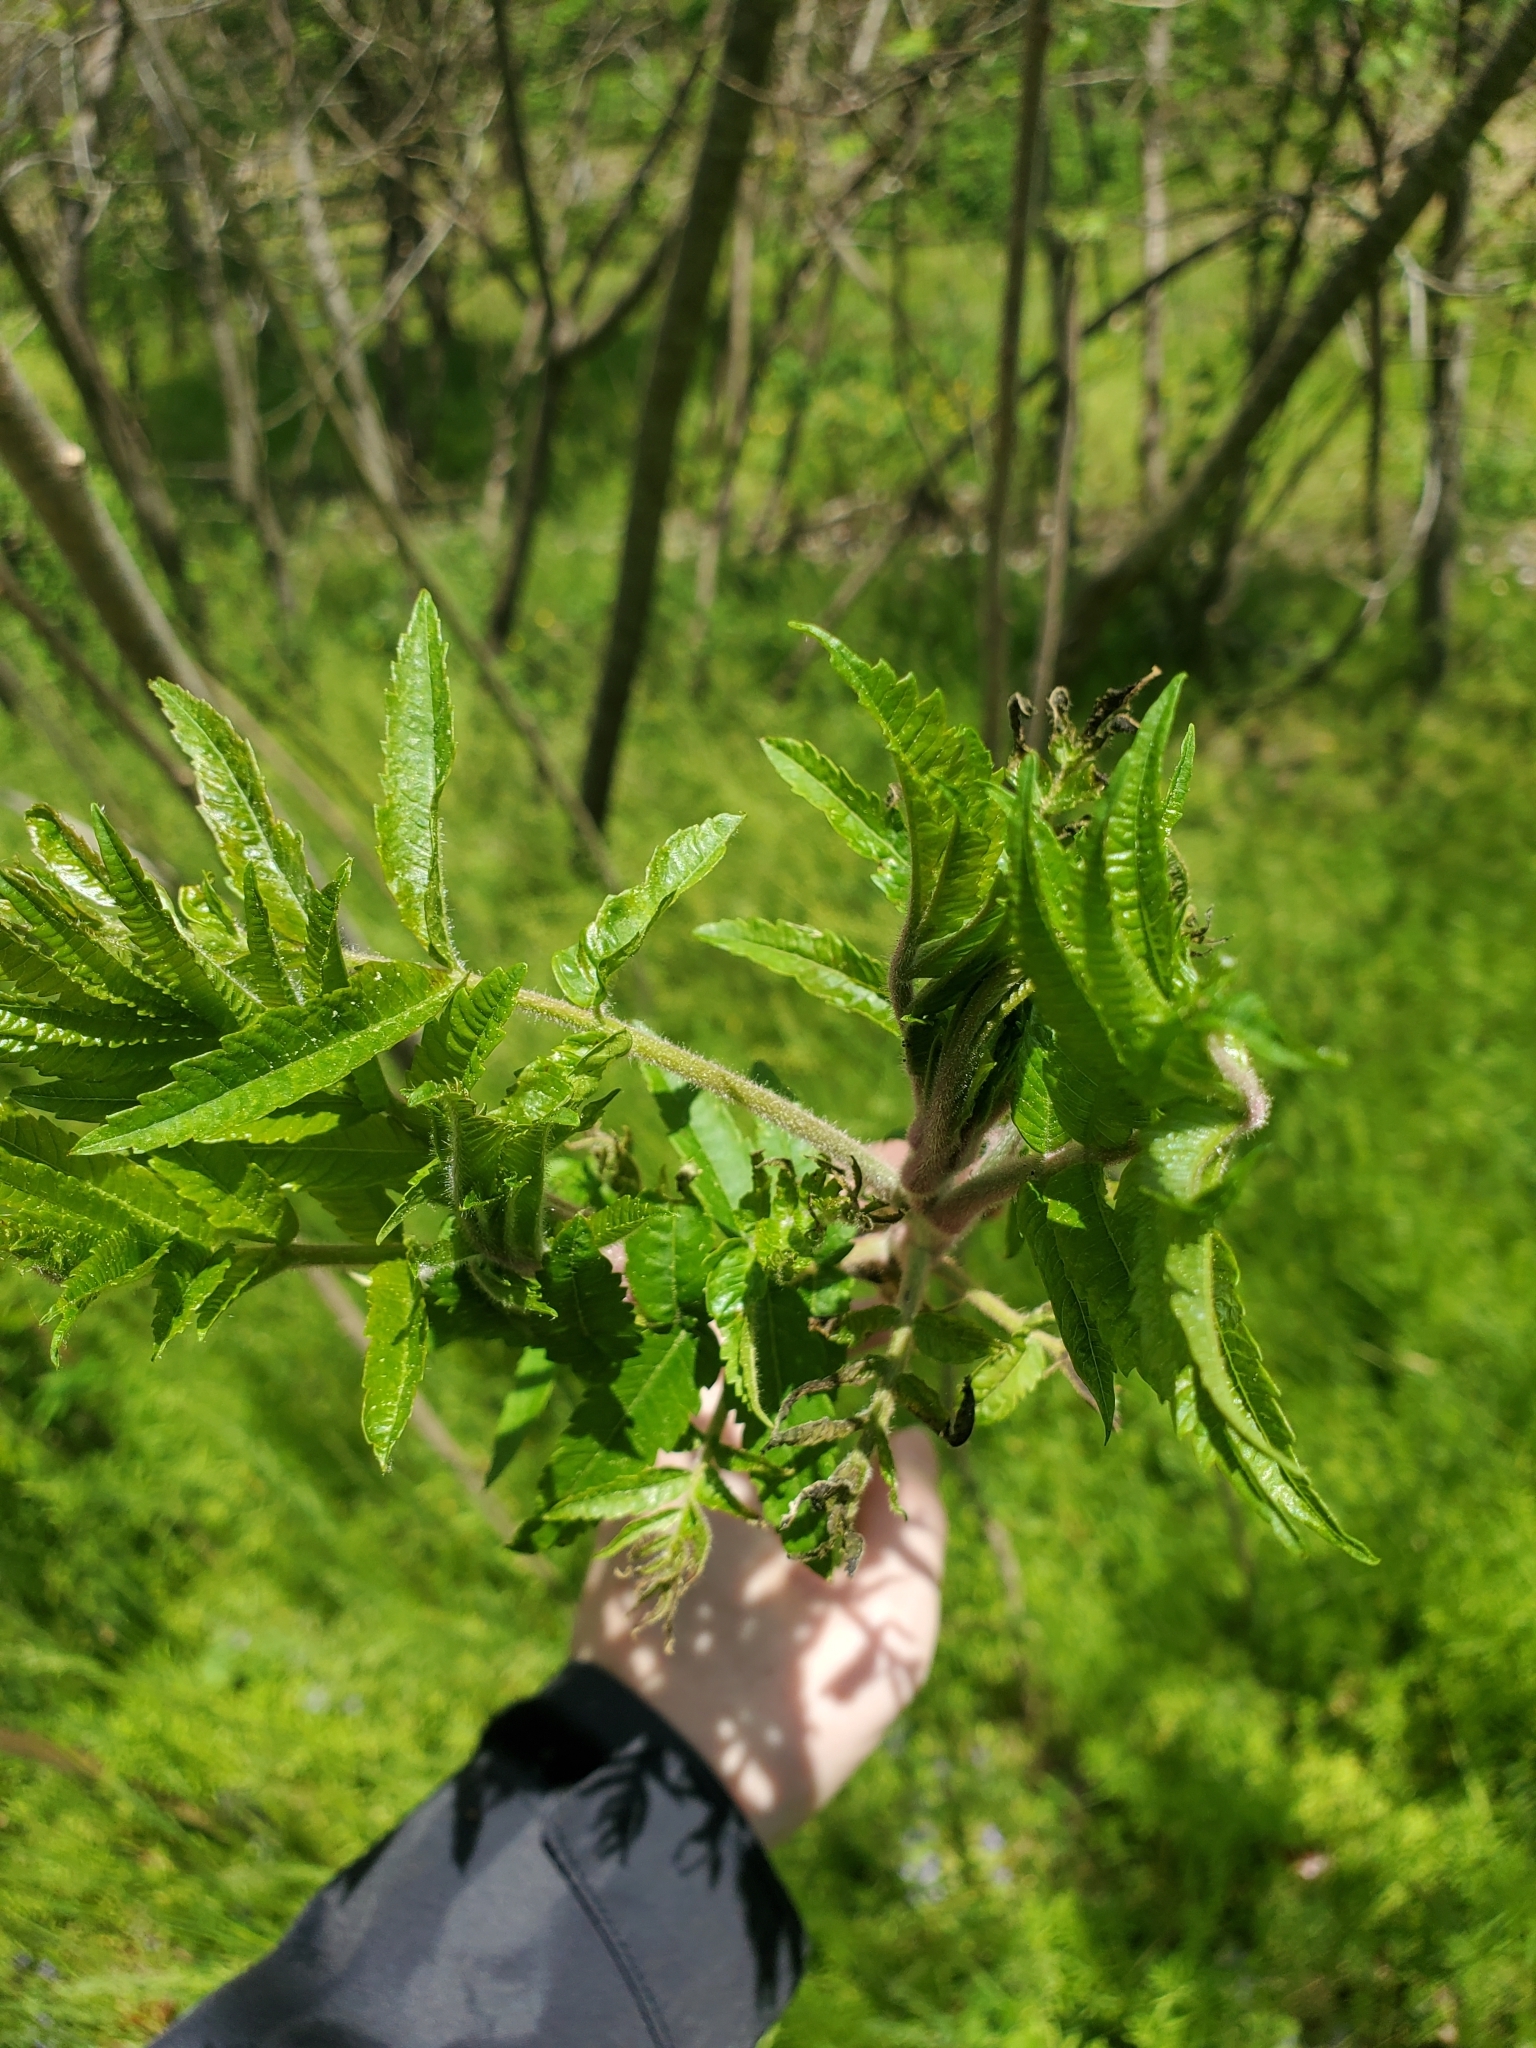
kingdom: Plantae
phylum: Tracheophyta
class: Magnoliopsida
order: Sapindales
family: Anacardiaceae
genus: Rhus
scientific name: Rhus typhina
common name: Staghorn sumac
